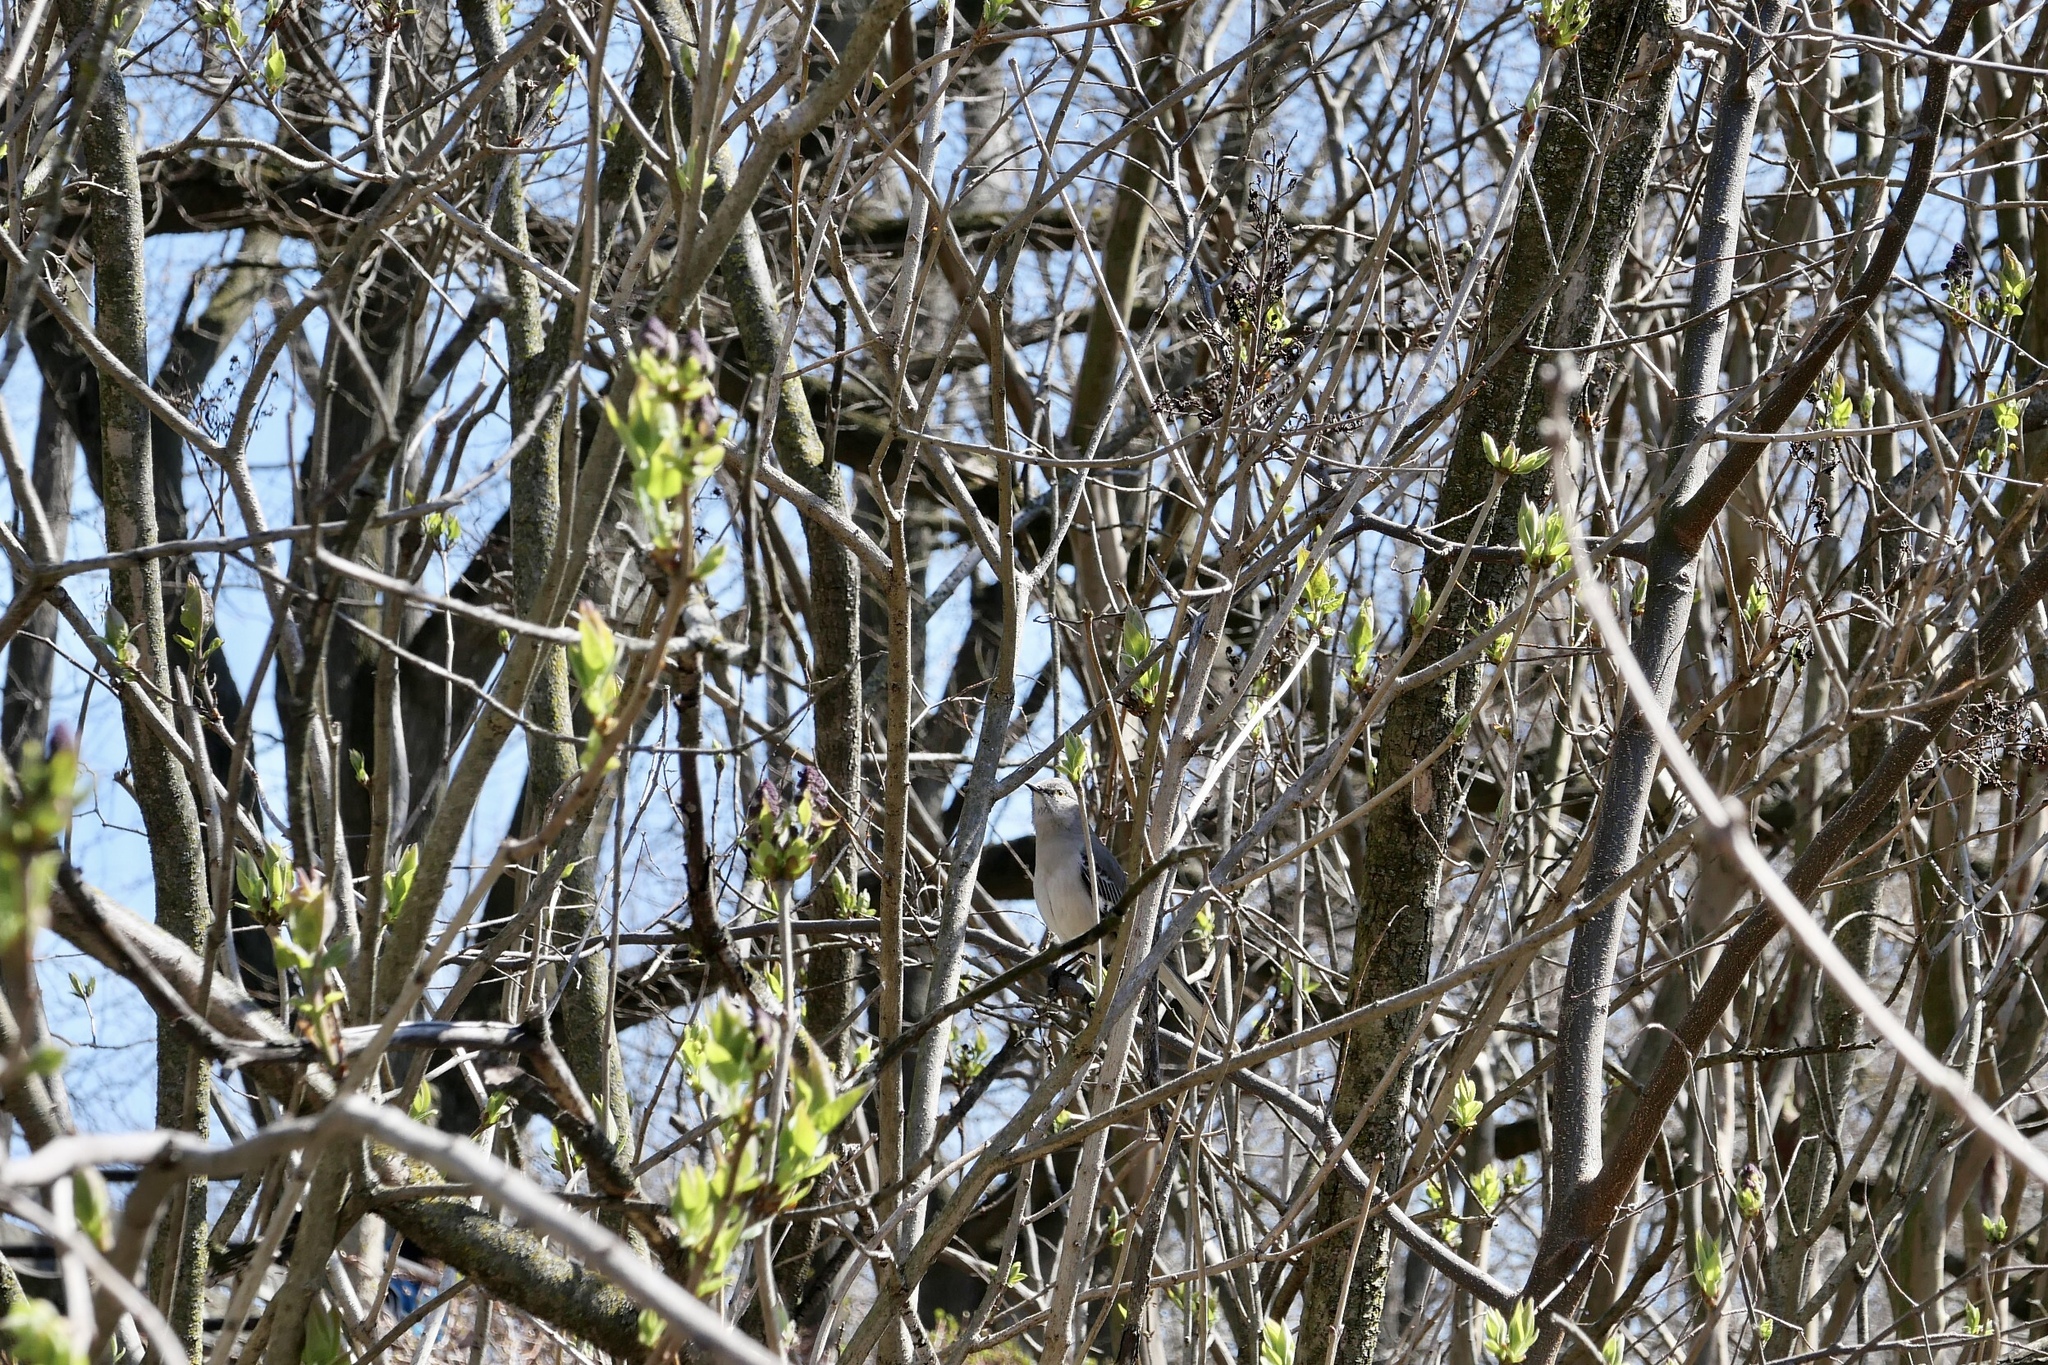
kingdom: Animalia
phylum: Chordata
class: Aves
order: Passeriformes
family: Mimidae
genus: Mimus
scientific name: Mimus polyglottos
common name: Northern mockingbird
